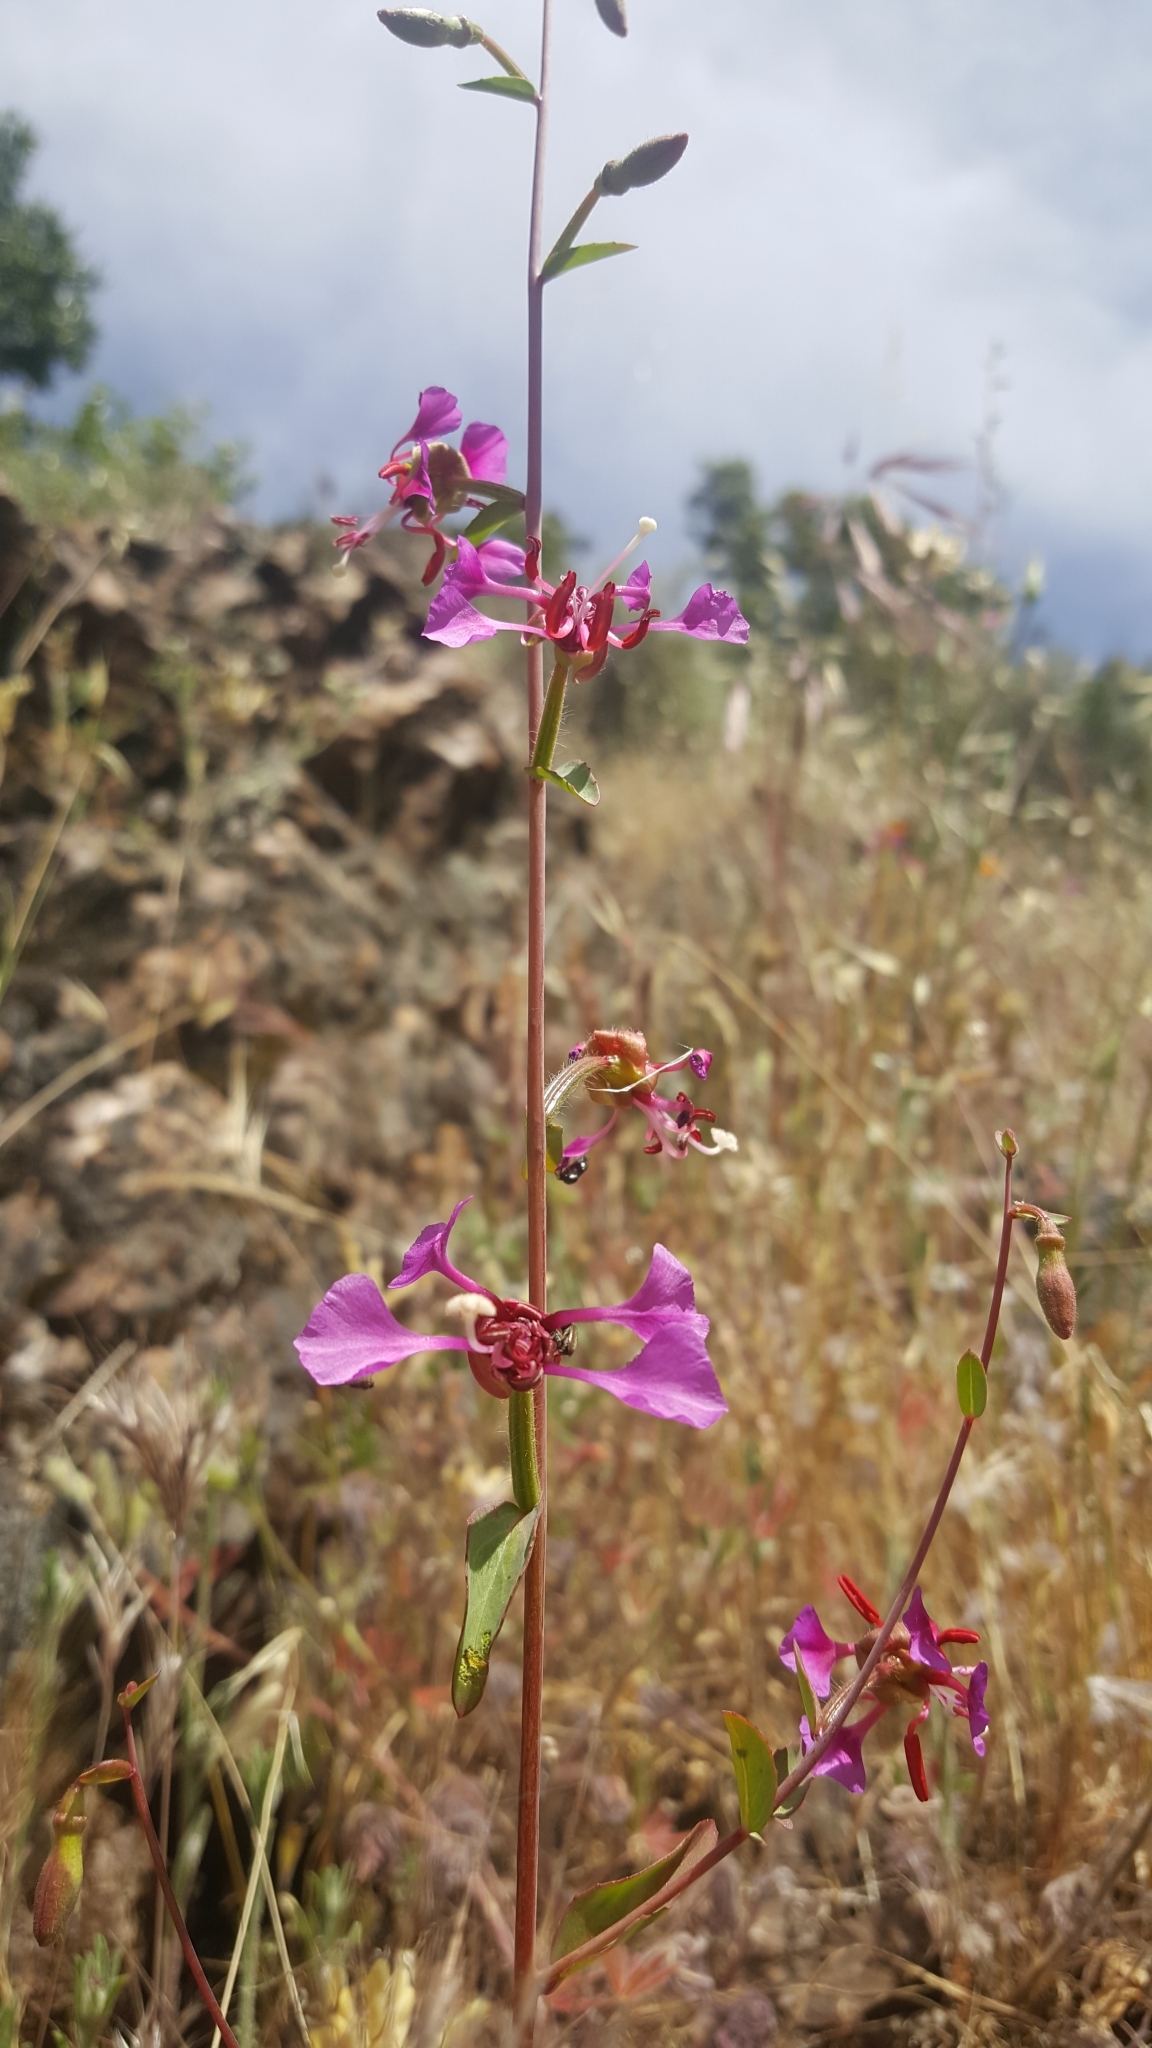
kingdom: Plantae
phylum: Tracheophyta
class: Magnoliopsida
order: Myrtales
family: Onagraceae
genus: Clarkia
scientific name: Clarkia unguiculata
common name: Clarkia
